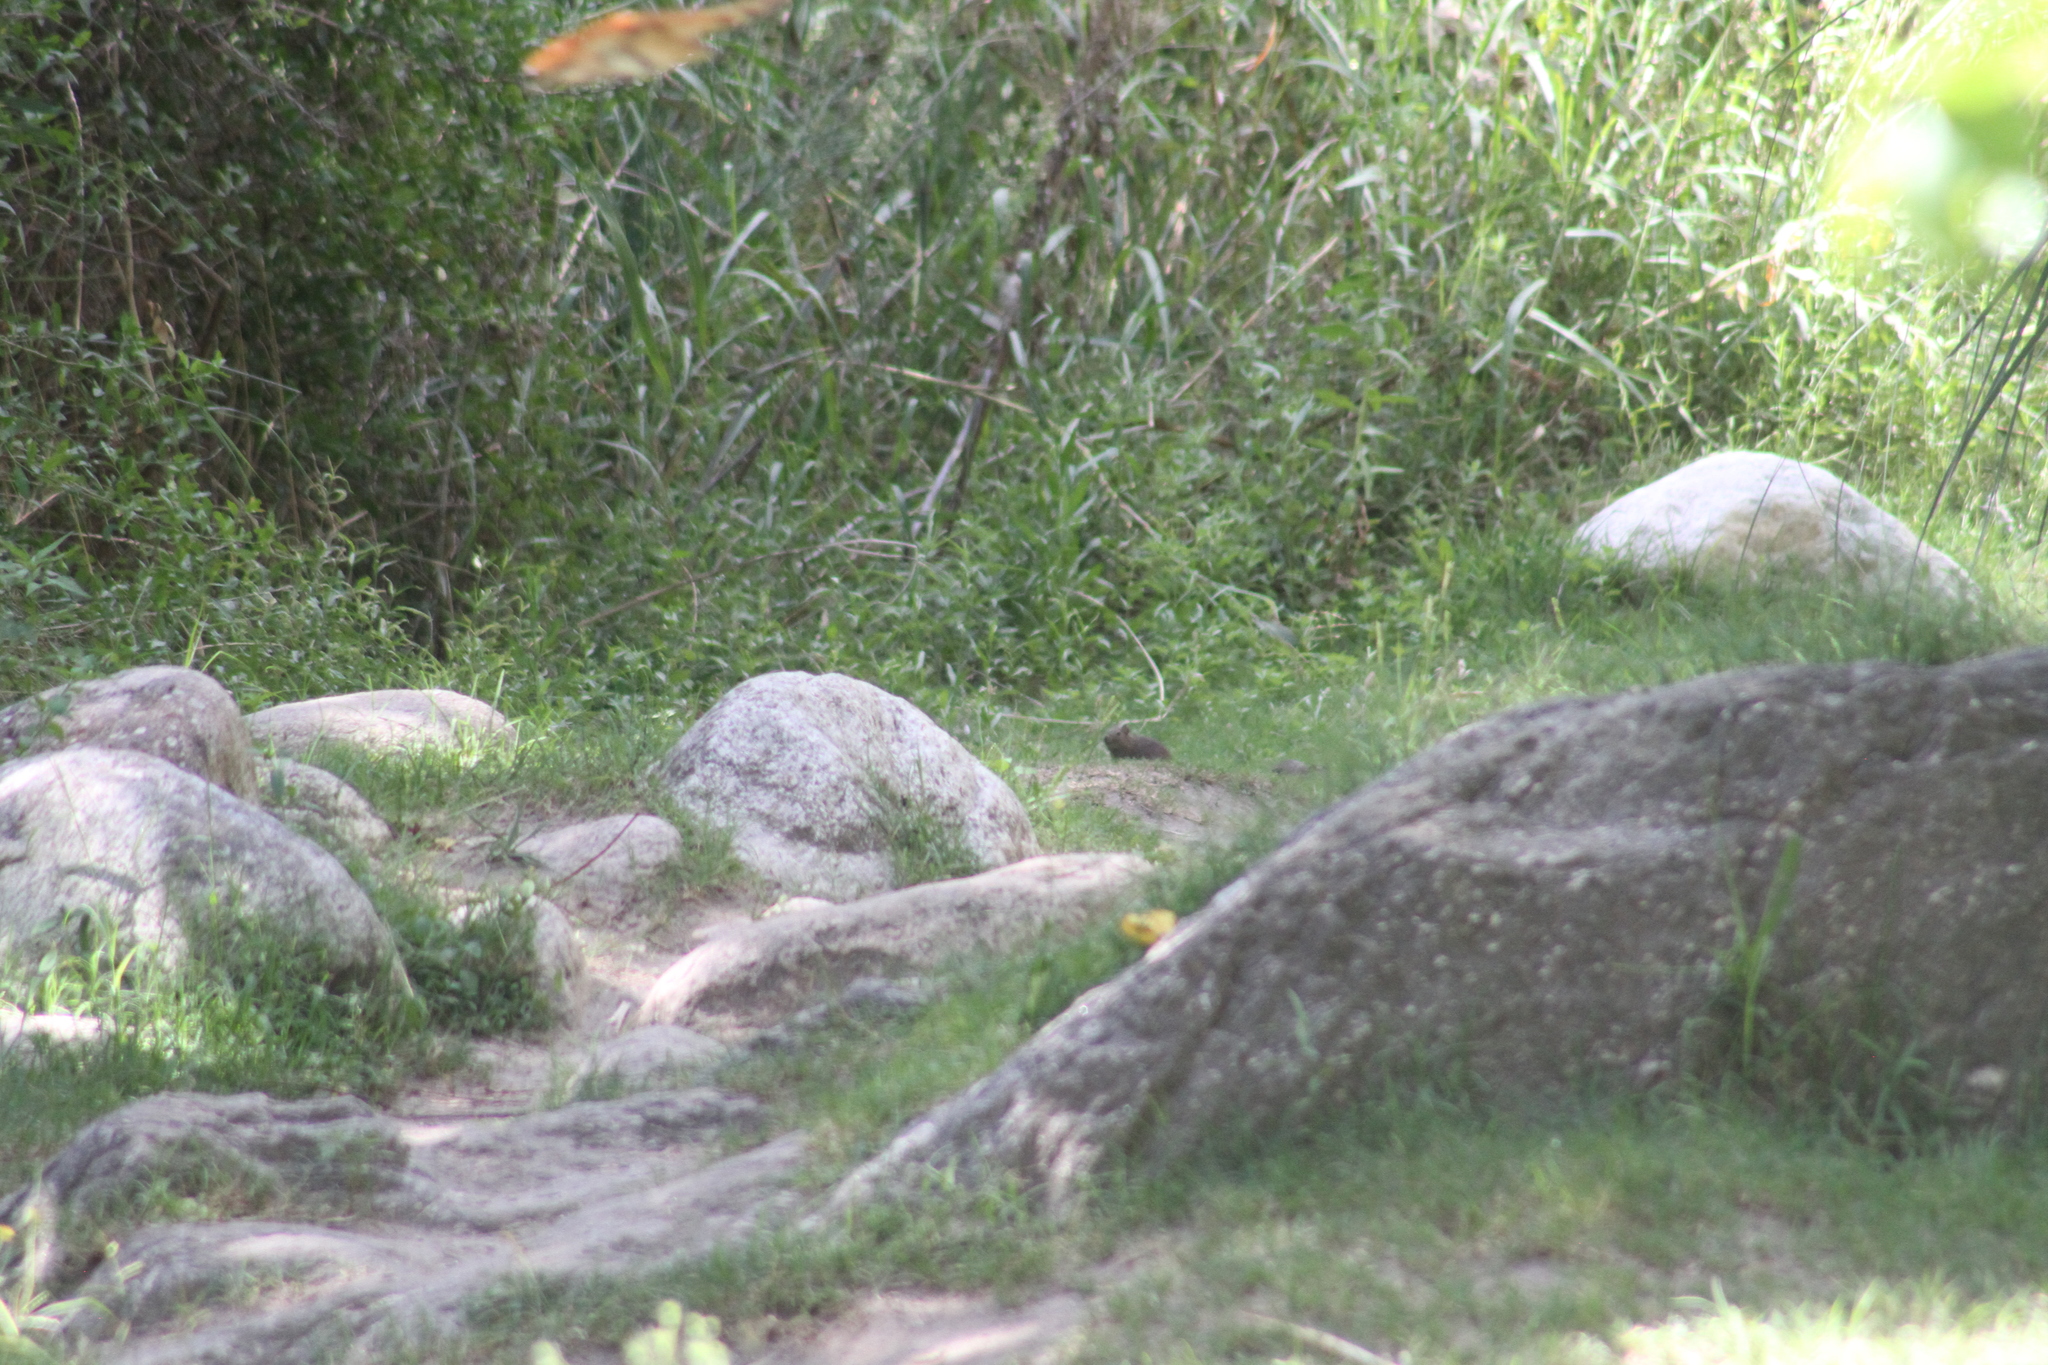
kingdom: Animalia
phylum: Chordata
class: Mammalia
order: Rodentia
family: Caviidae
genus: Cavia
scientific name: Cavia aperea
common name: Brazilian guinea pig
